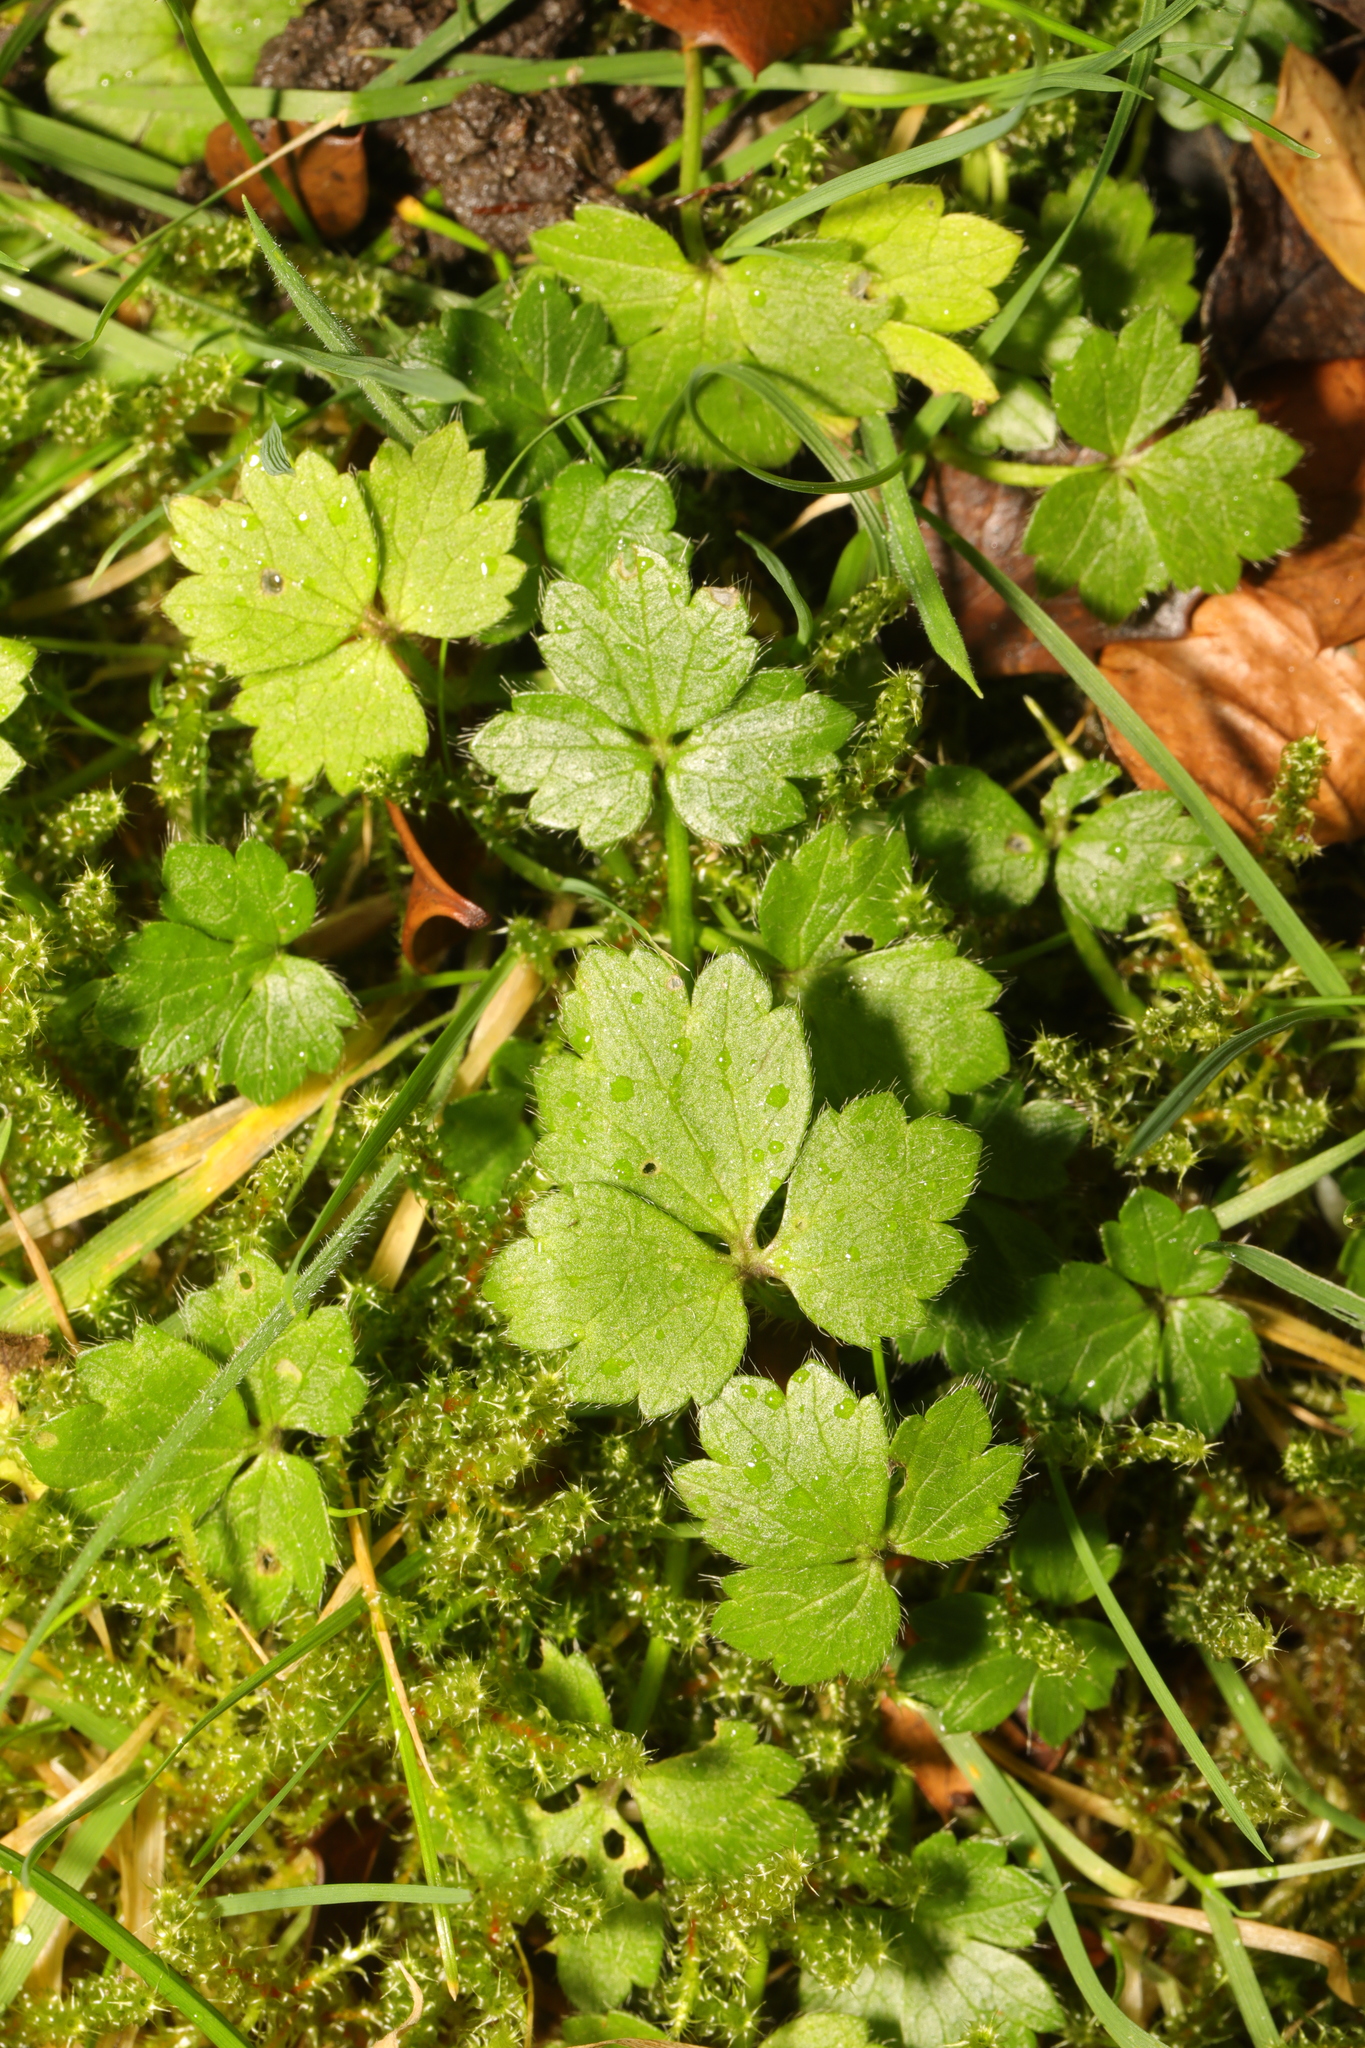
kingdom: Plantae
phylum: Tracheophyta
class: Magnoliopsida
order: Ranunculales
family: Ranunculaceae
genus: Ranunculus
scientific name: Ranunculus repens
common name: Creeping buttercup
